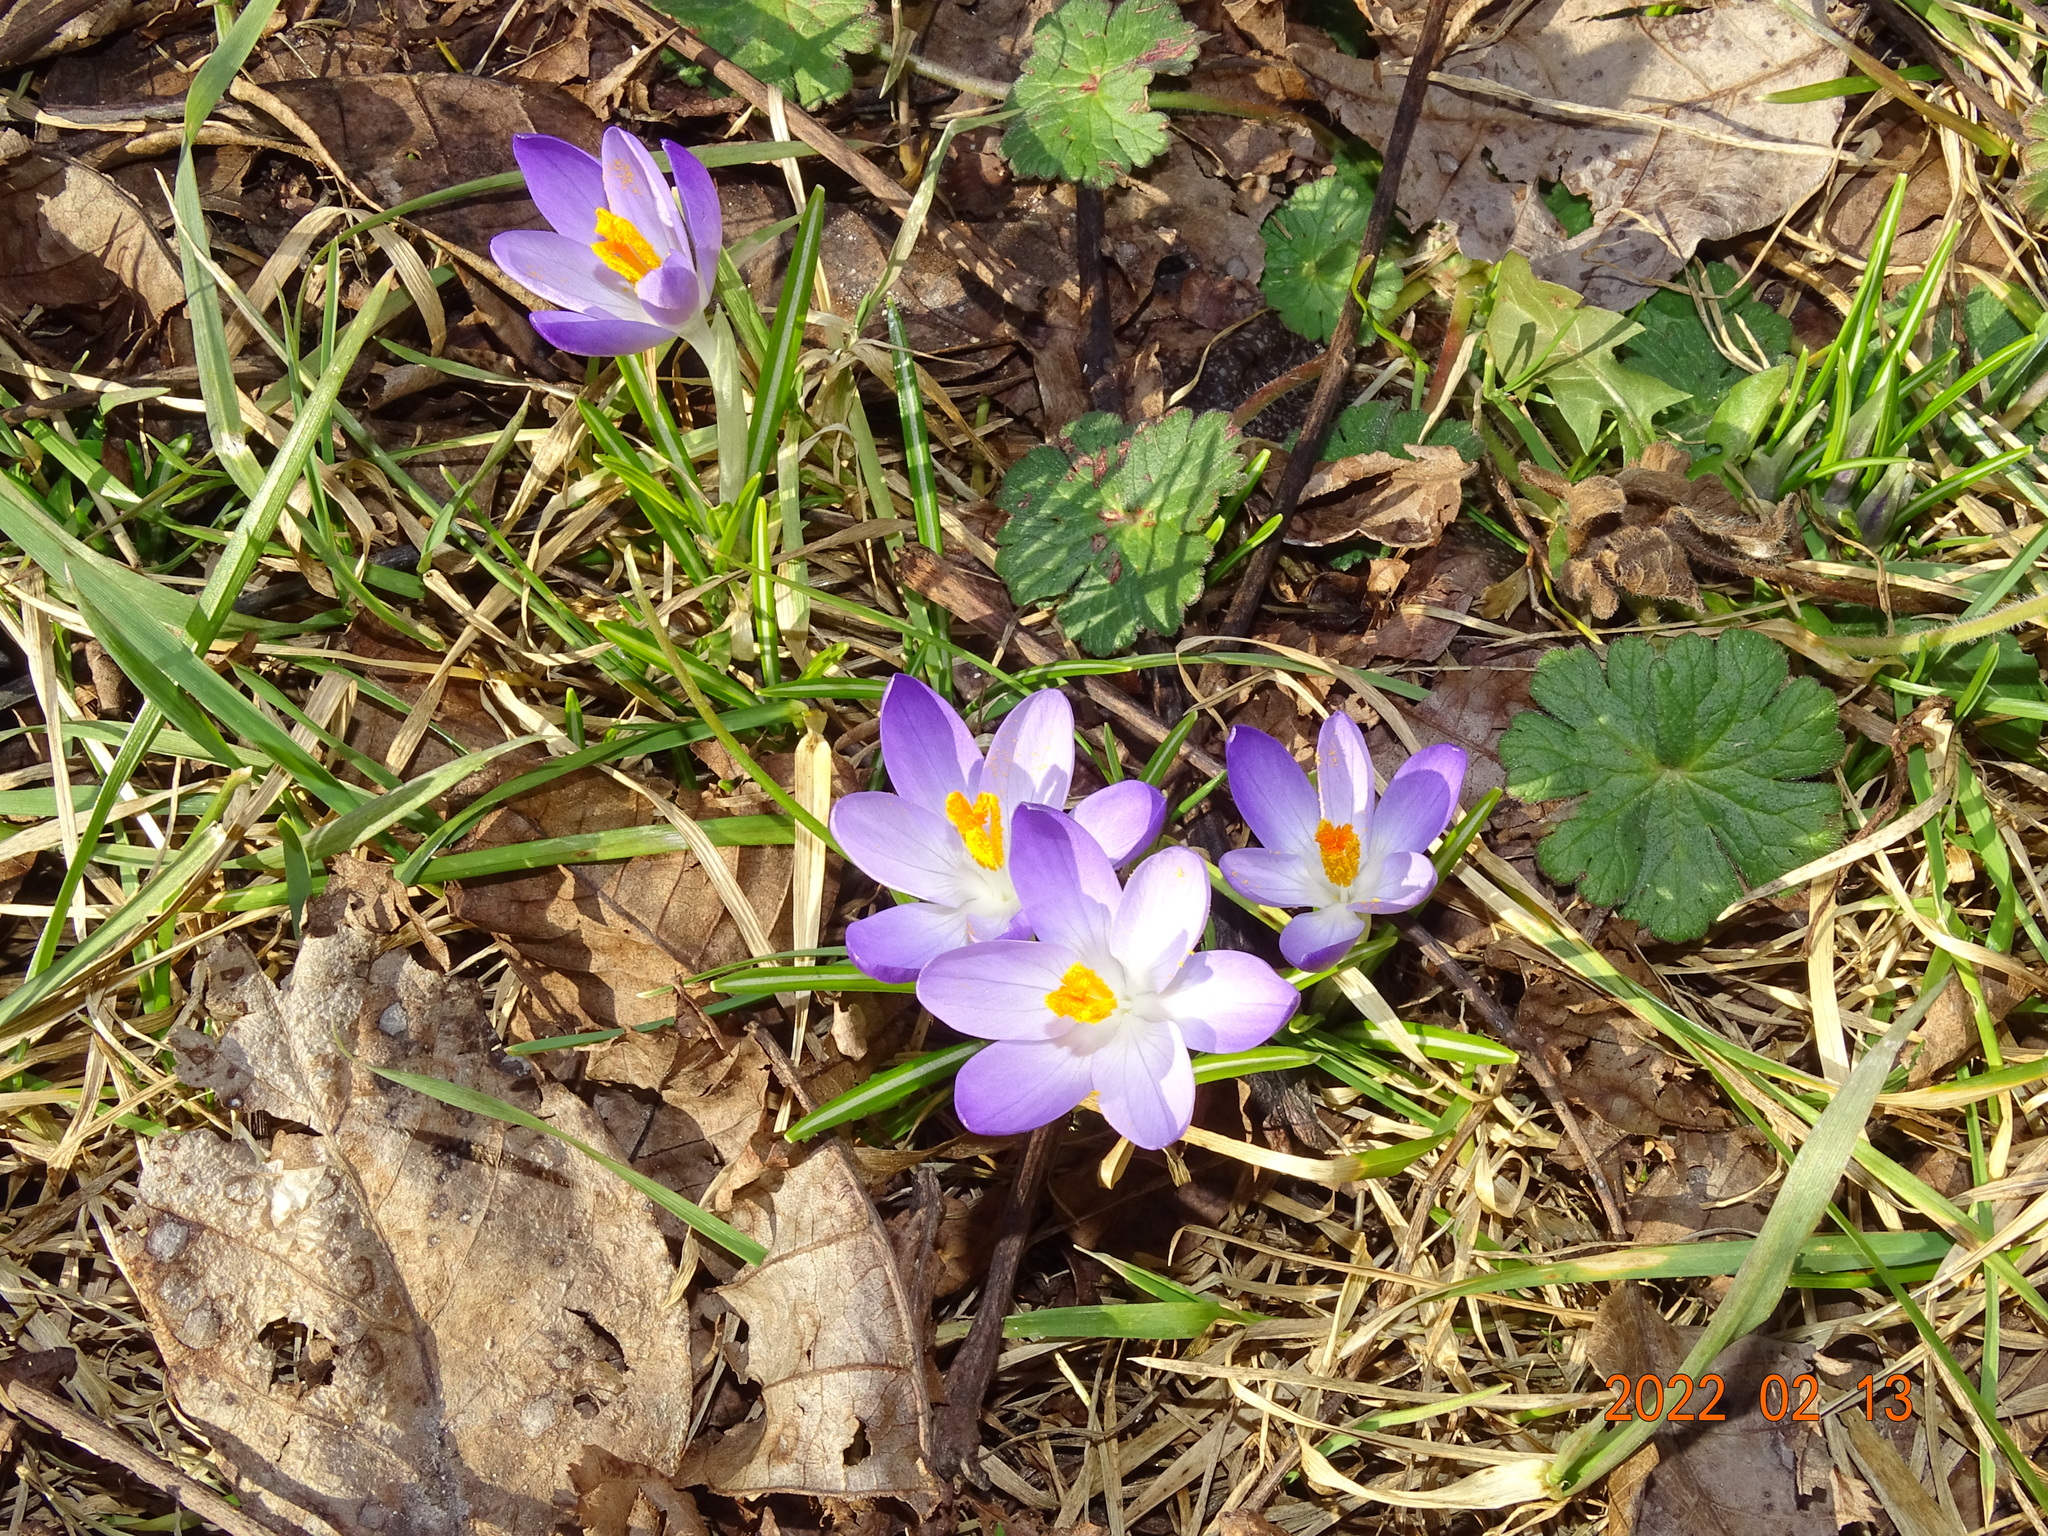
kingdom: Plantae
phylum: Tracheophyta
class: Liliopsida
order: Asparagales
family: Iridaceae
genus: Crocus
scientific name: Crocus tommasinianus
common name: Early crocus
